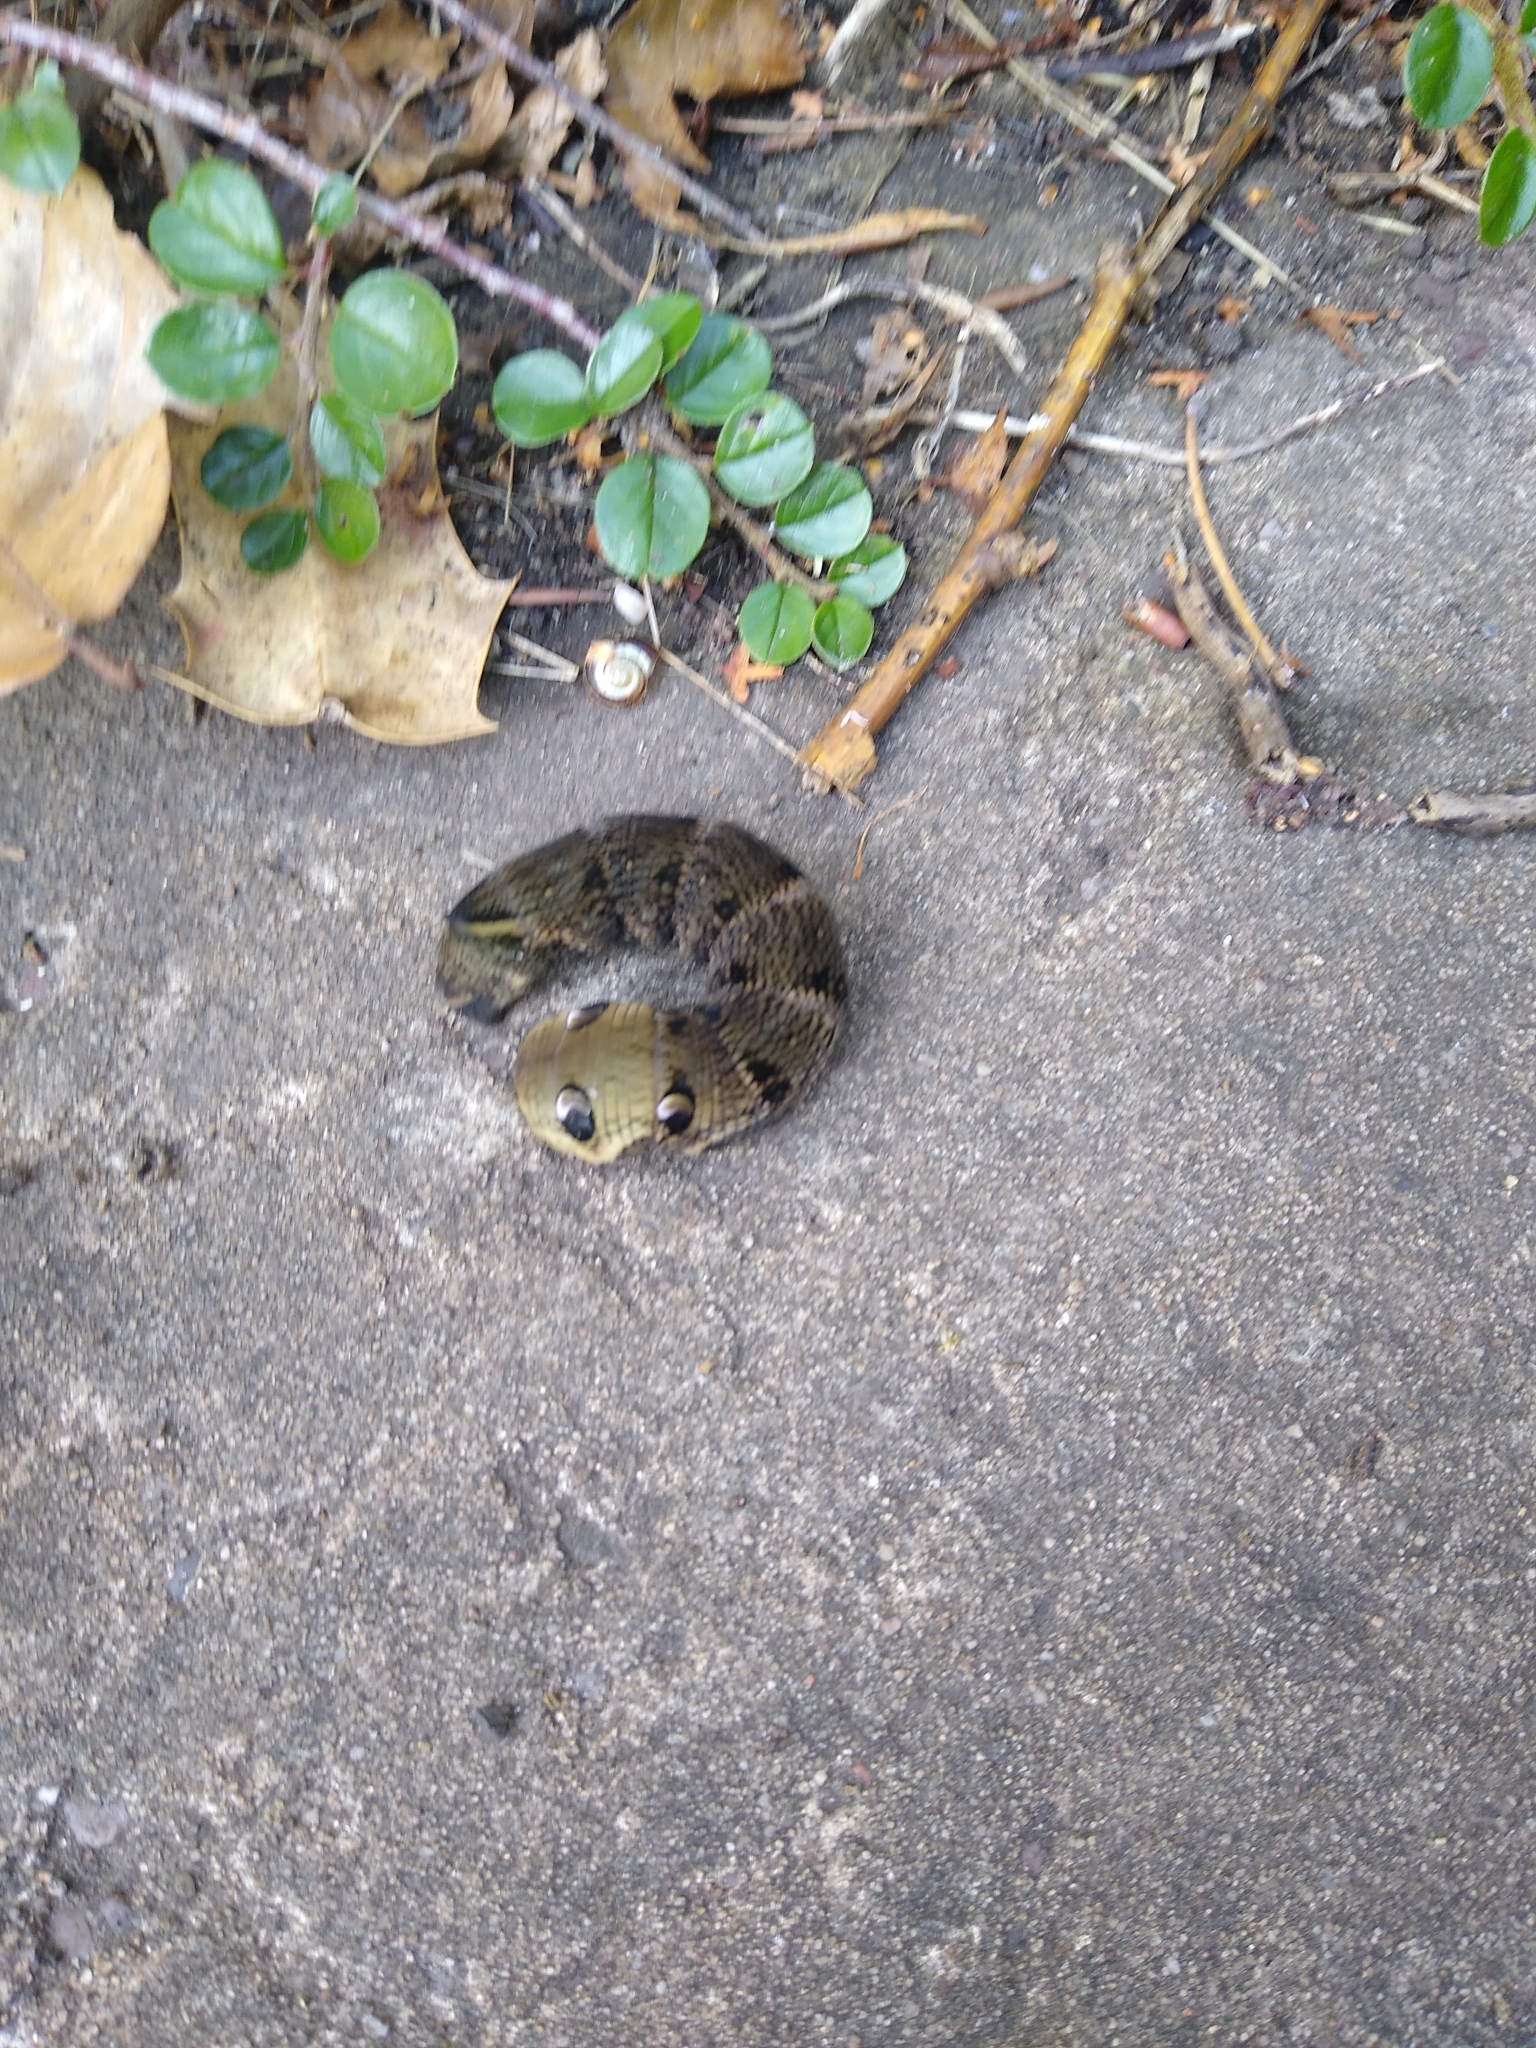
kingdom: Animalia
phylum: Arthropoda
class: Insecta
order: Lepidoptera
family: Sphingidae
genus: Deilephila
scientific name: Deilephila elpenor
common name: Elephant hawk-moth
